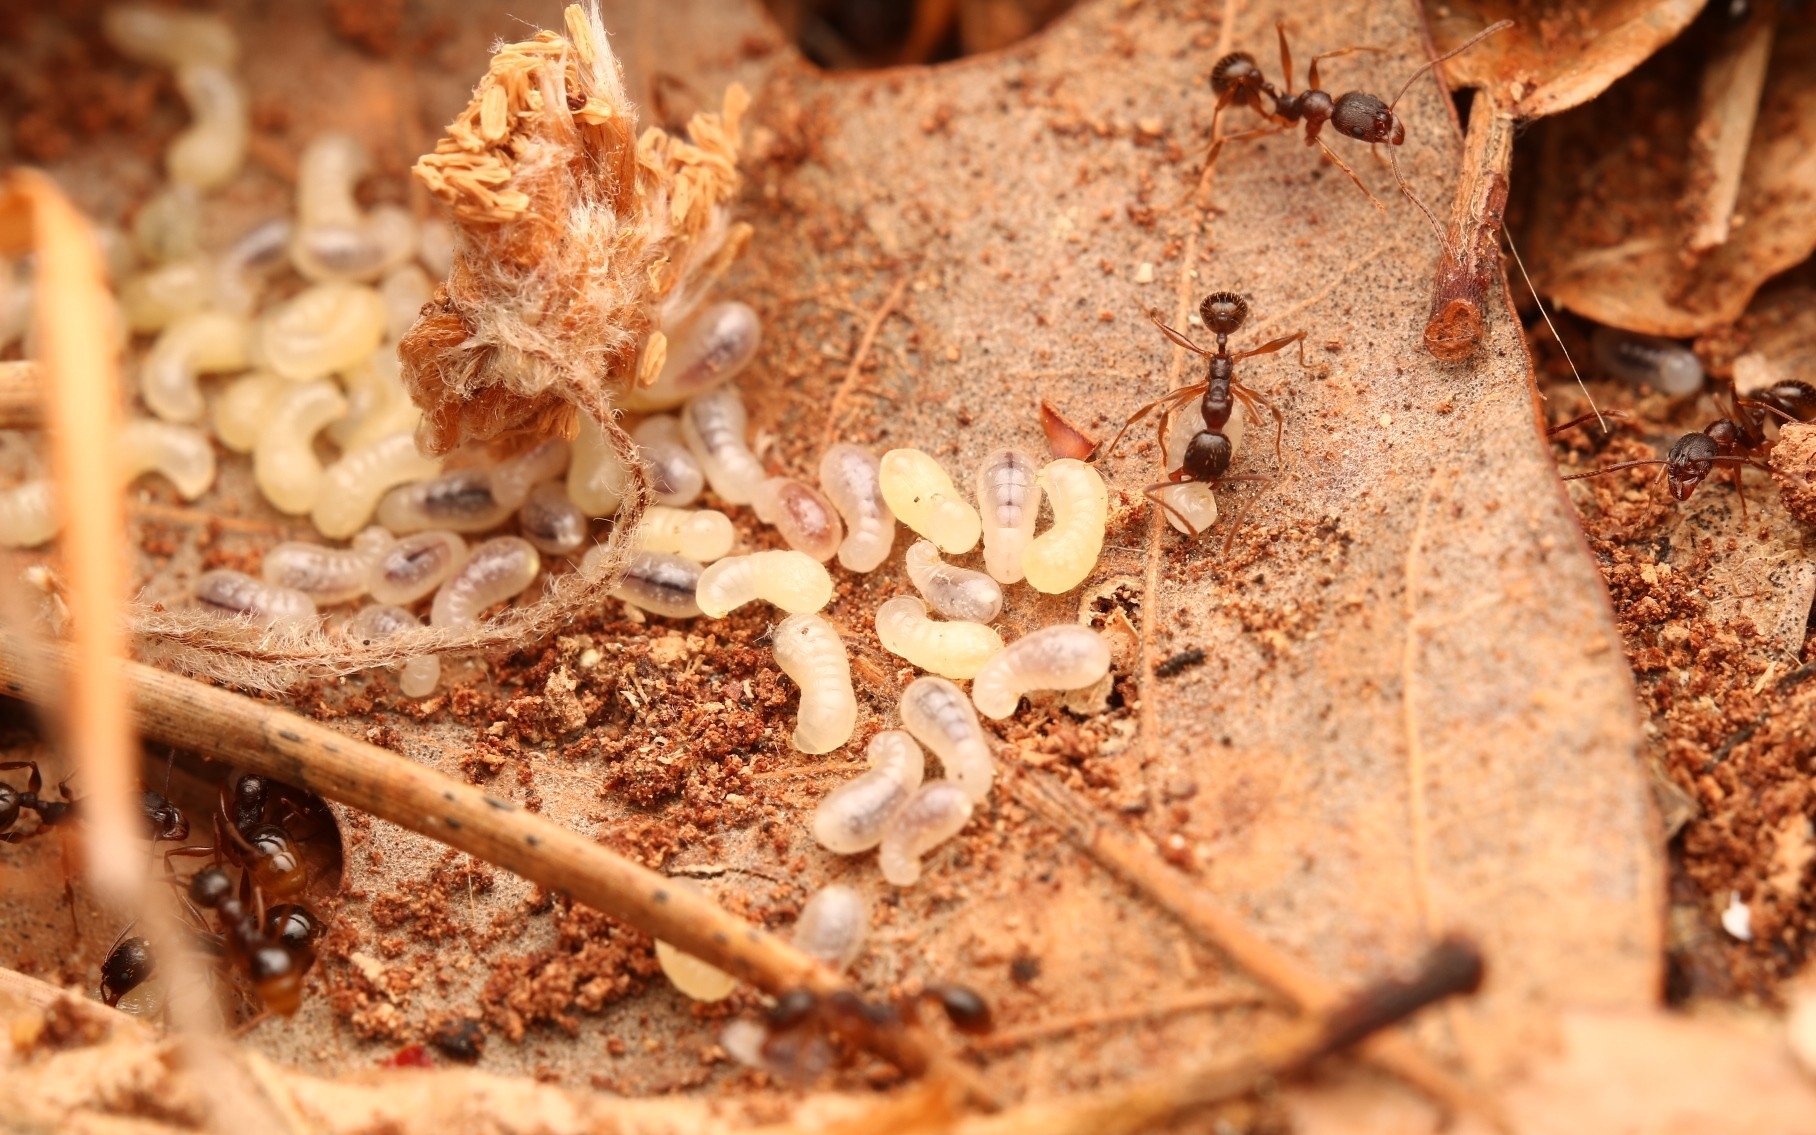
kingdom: Animalia
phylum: Arthropoda
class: Insecta
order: Hymenoptera
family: Formicidae
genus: Aphaenogaster
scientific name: Aphaenogaster rudis
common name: Winnow ant
